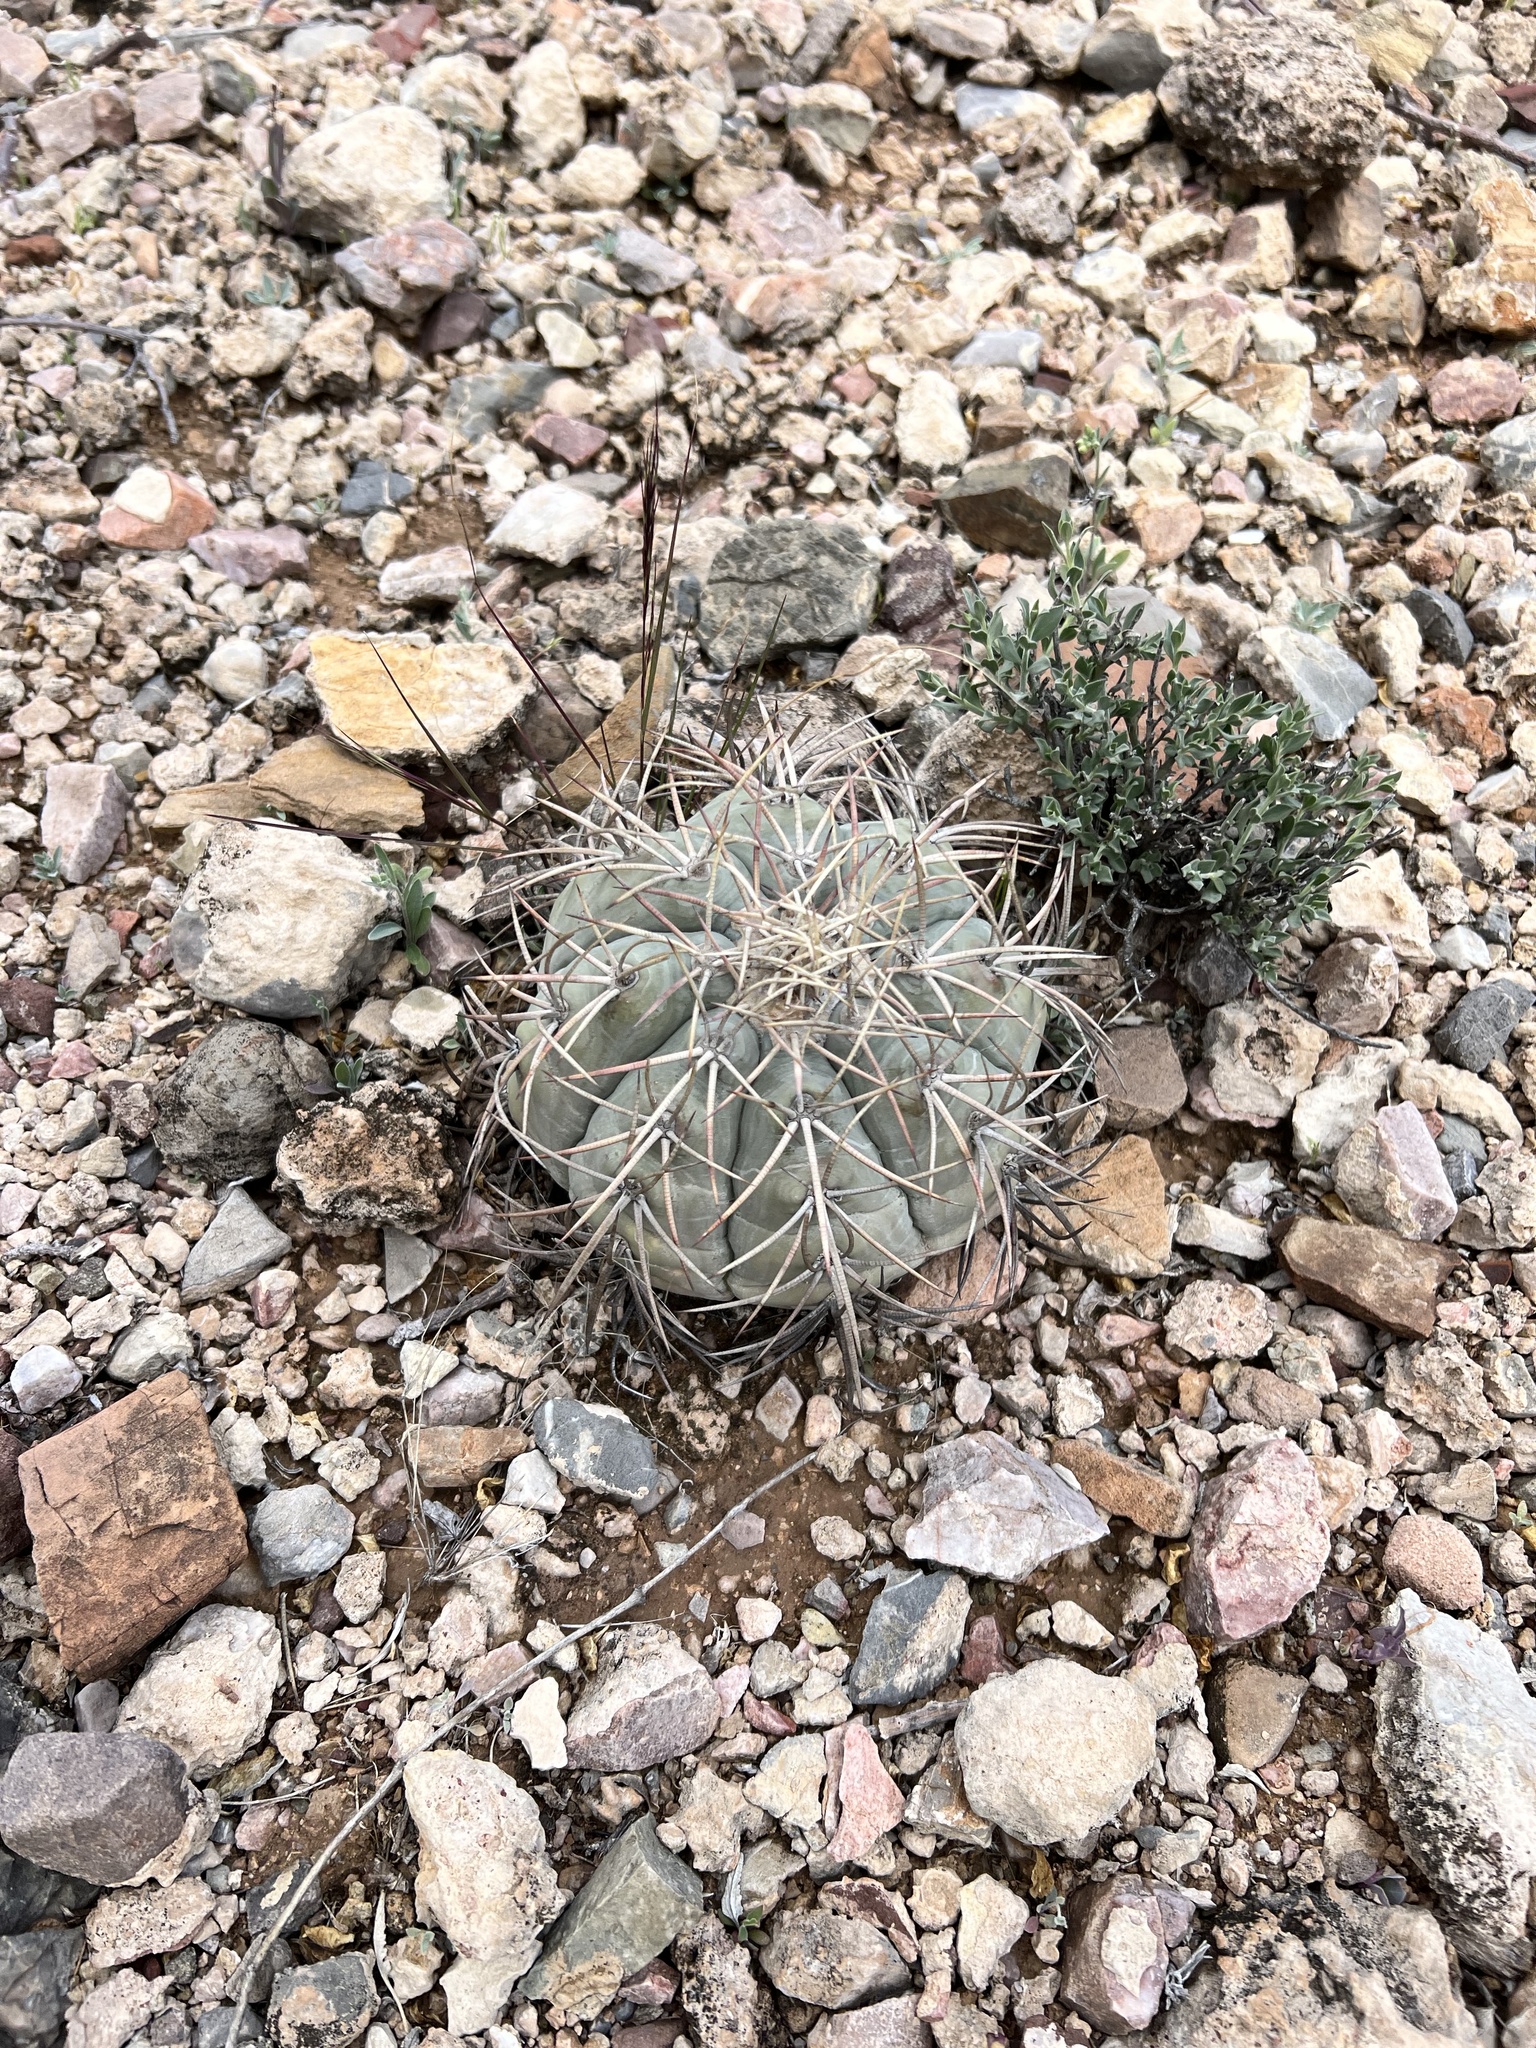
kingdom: Plantae
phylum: Tracheophyta
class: Magnoliopsida
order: Caryophyllales
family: Cactaceae
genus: Echinocactus
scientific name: Echinocactus horizonthalonius
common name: Devilshead
